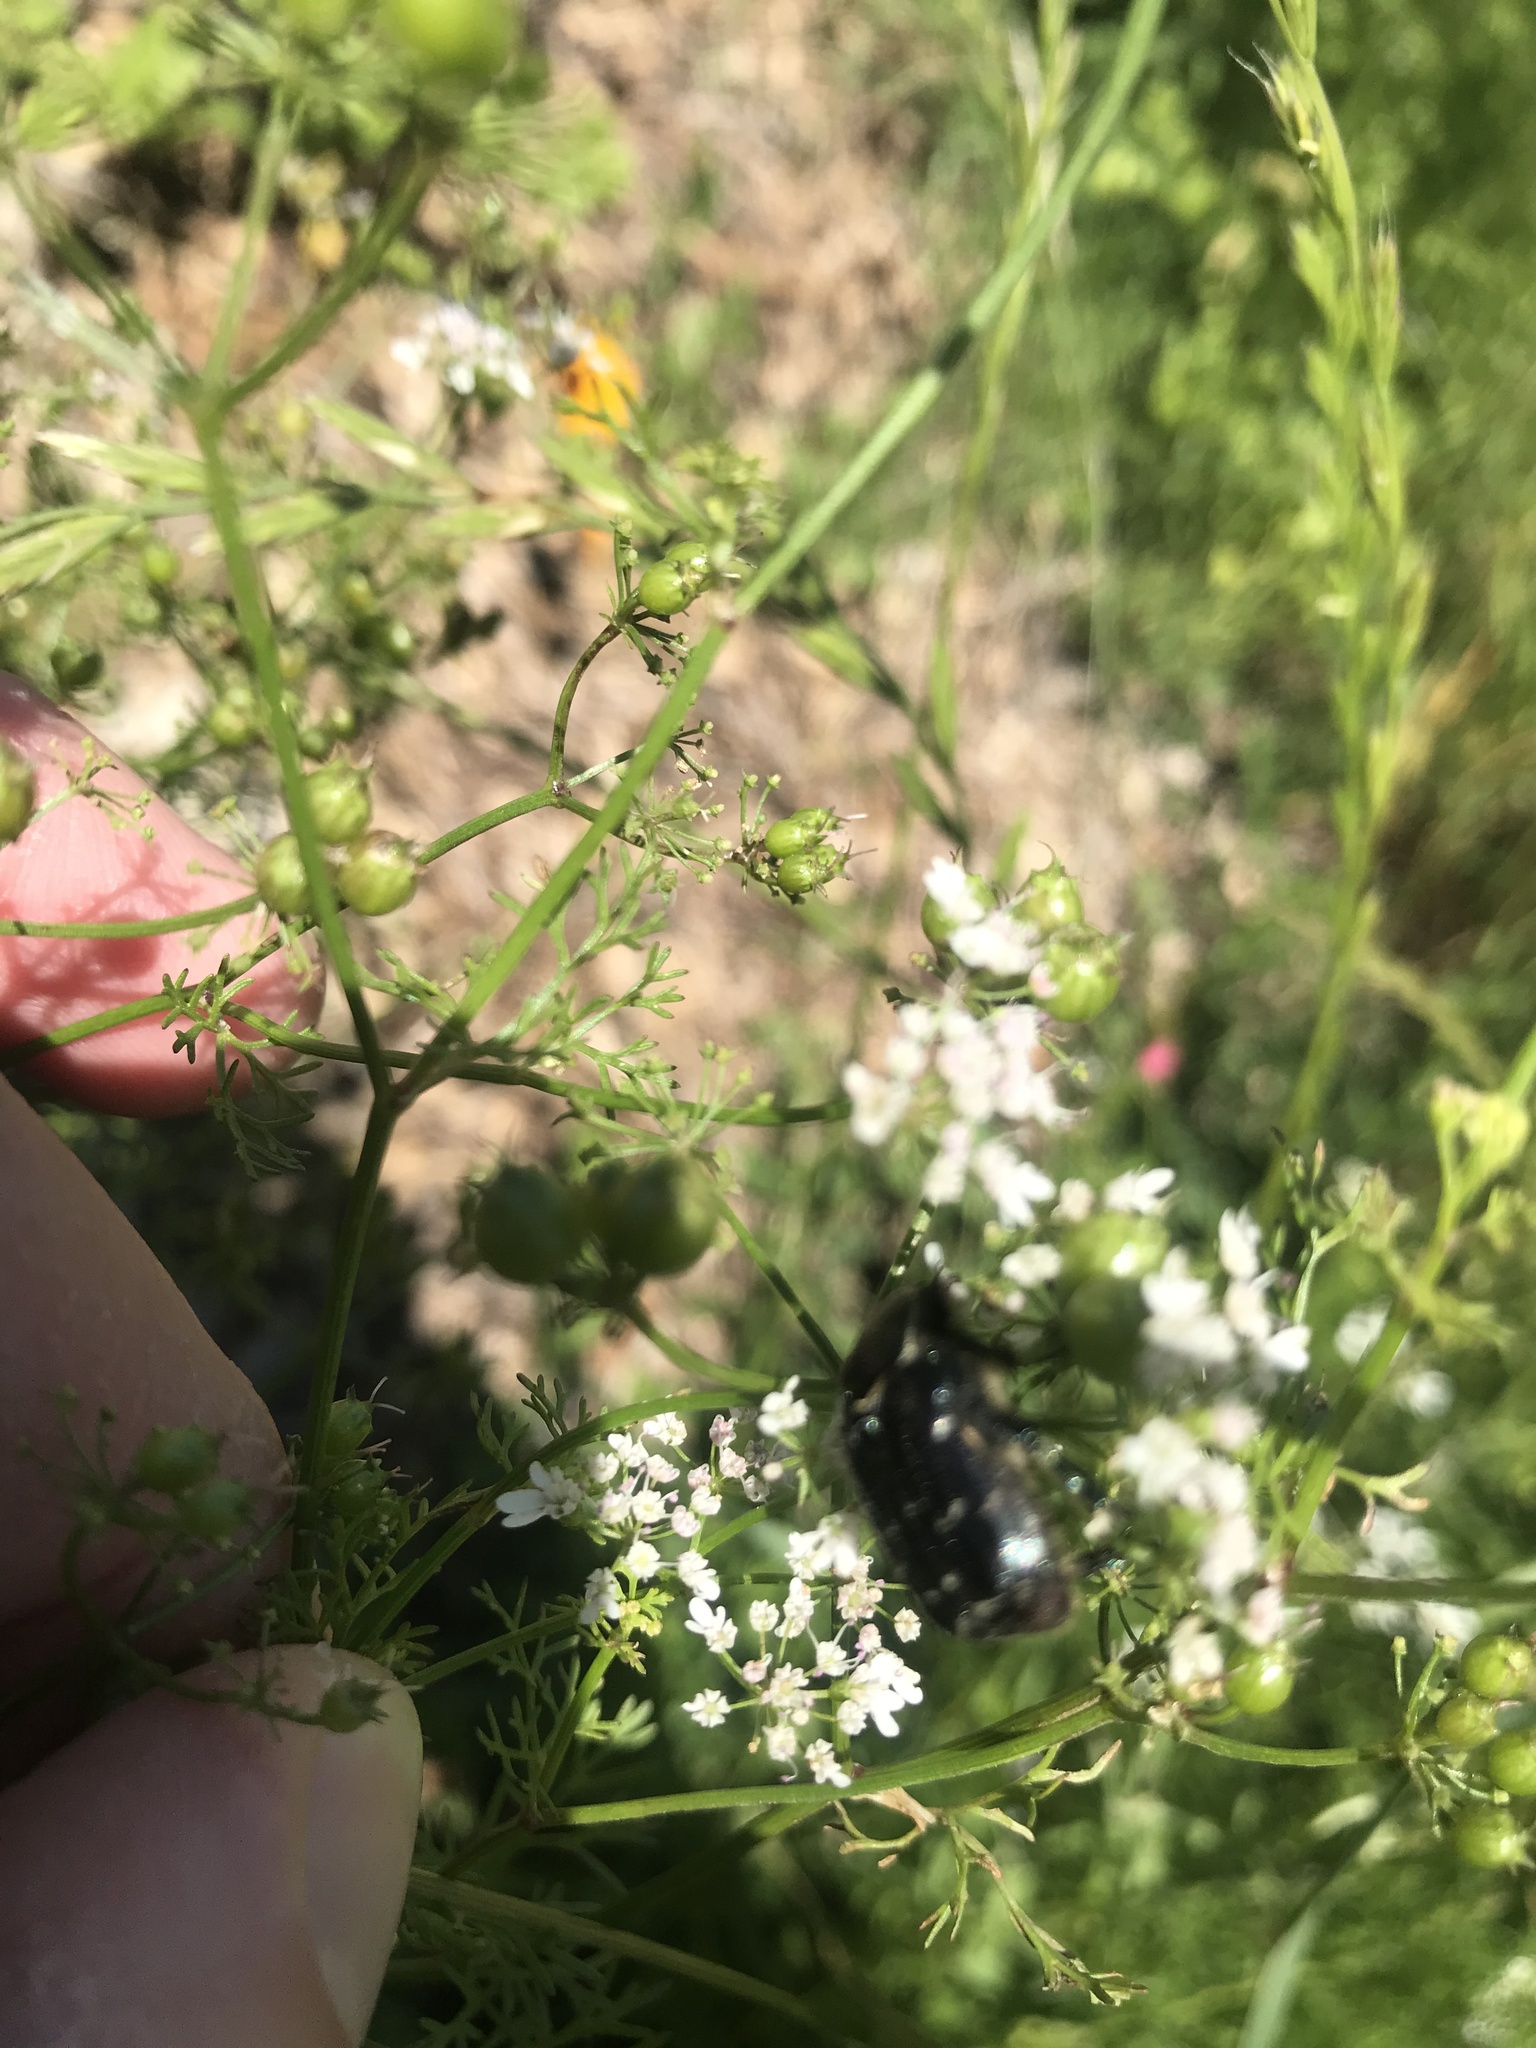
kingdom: Animalia
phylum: Arthropoda
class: Insecta
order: Coleoptera
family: Scarabaeidae
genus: Euphoria
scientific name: Euphoria sepulcralis
